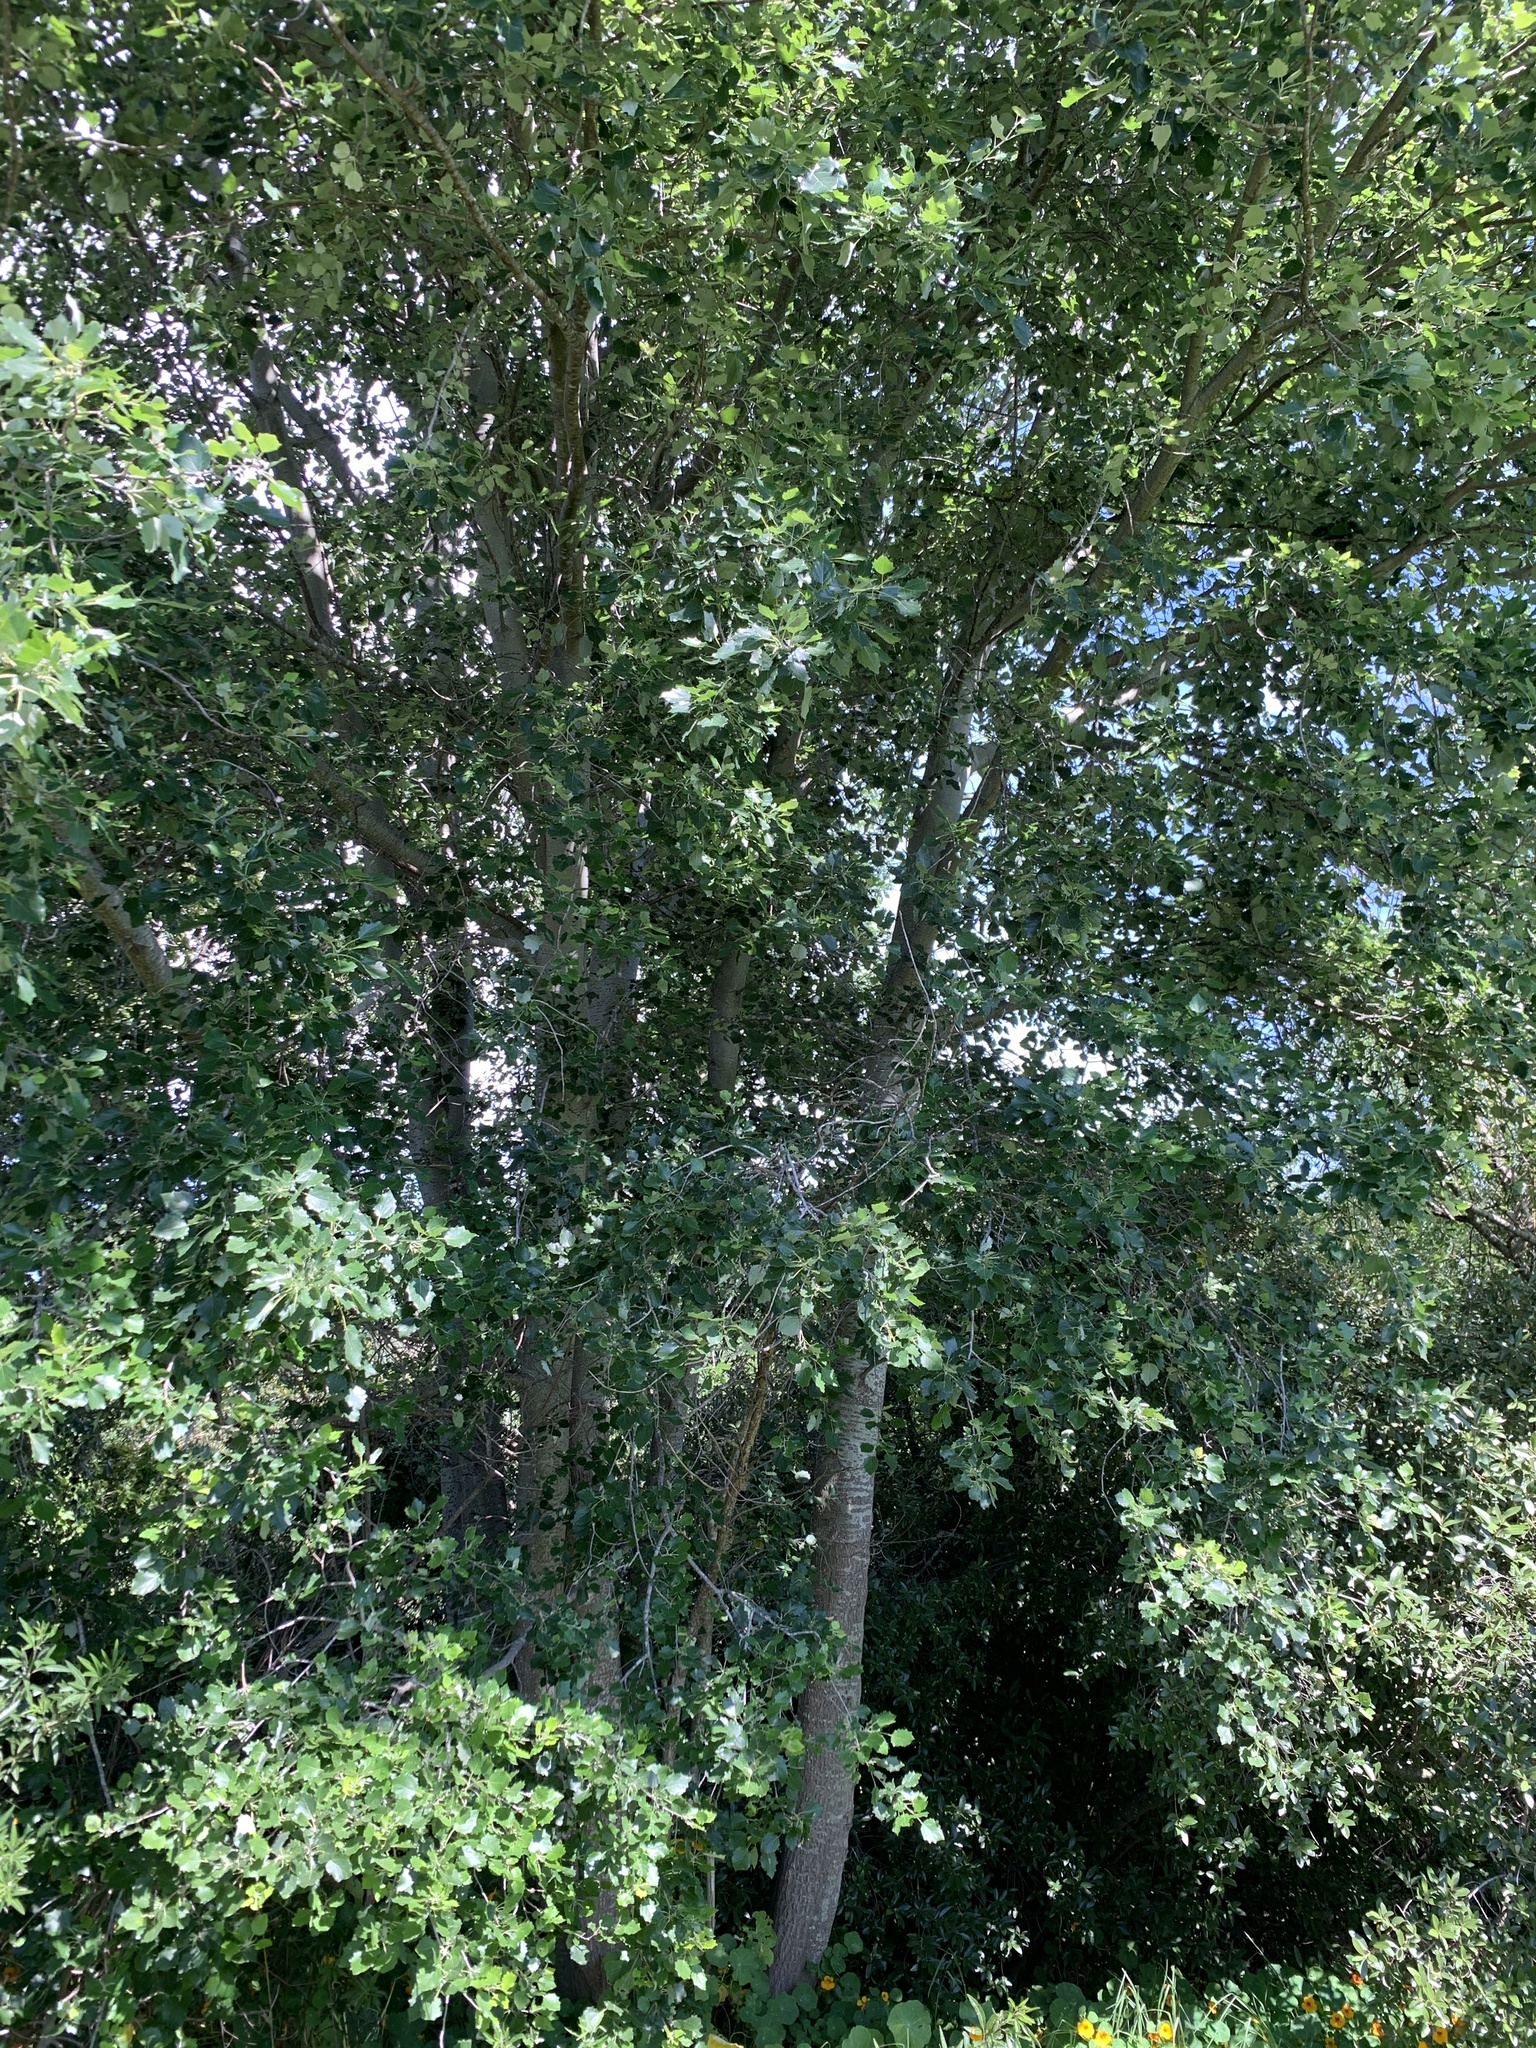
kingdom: Plantae
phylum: Tracheophyta
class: Magnoliopsida
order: Malpighiales
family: Salicaceae
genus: Populus
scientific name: Populus canescens
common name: Gray poplar
